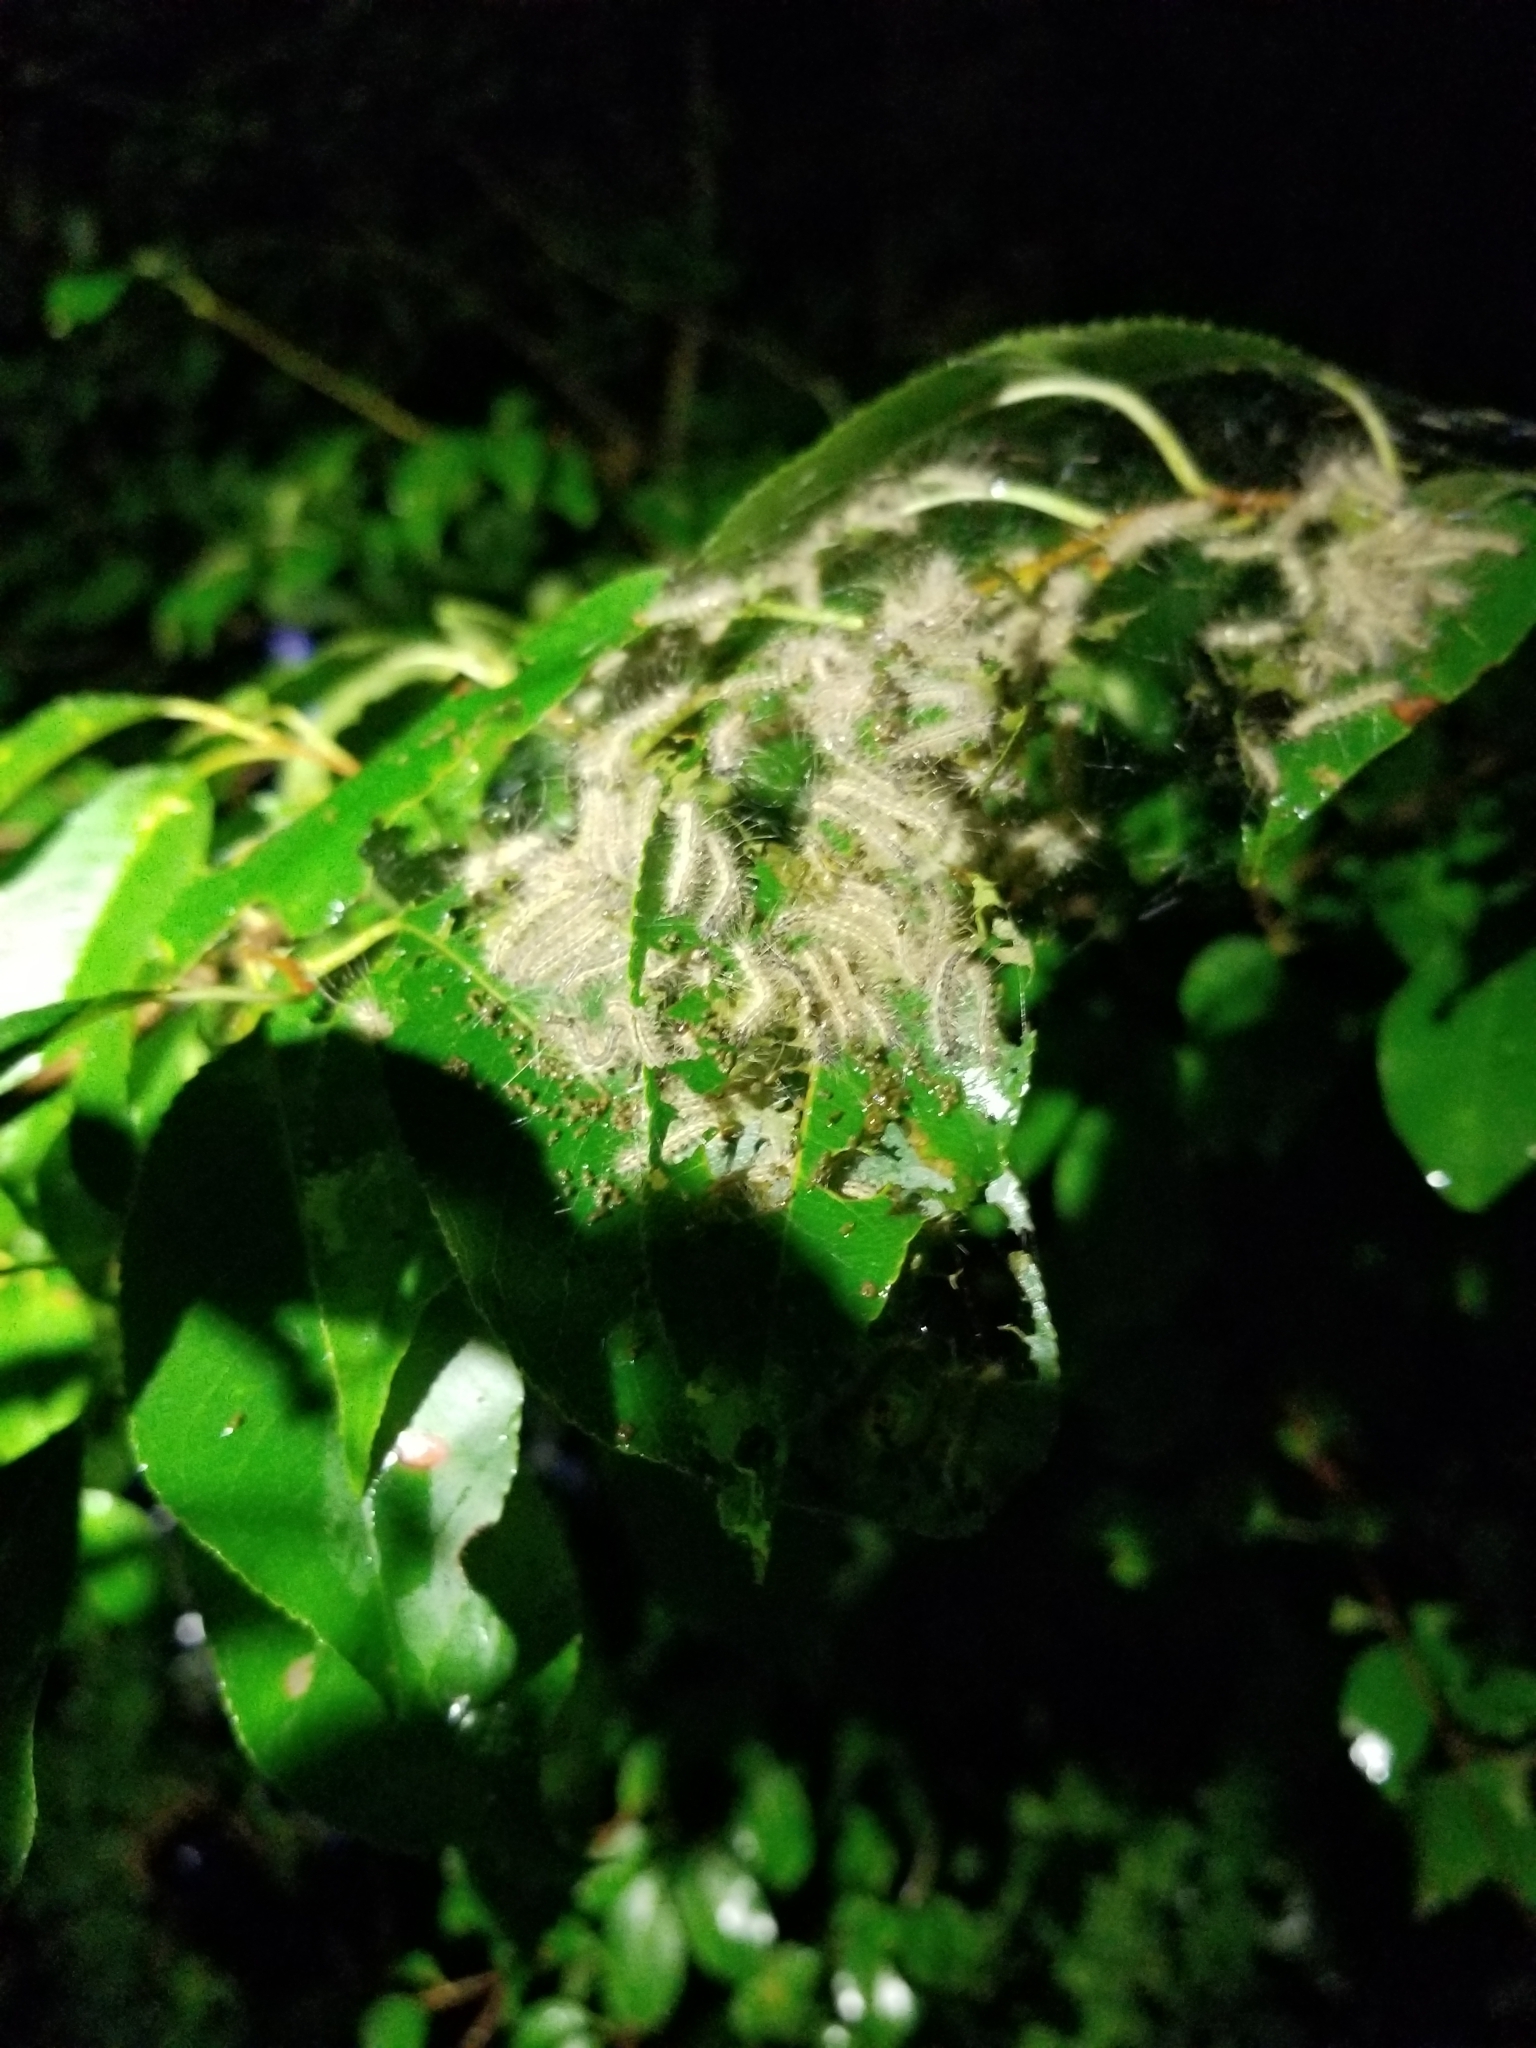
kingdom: Animalia
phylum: Arthropoda
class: Insecta
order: Lepidoptera
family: Erebidae
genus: Hyphantria
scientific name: Hyphantria cunea
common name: American white moth
